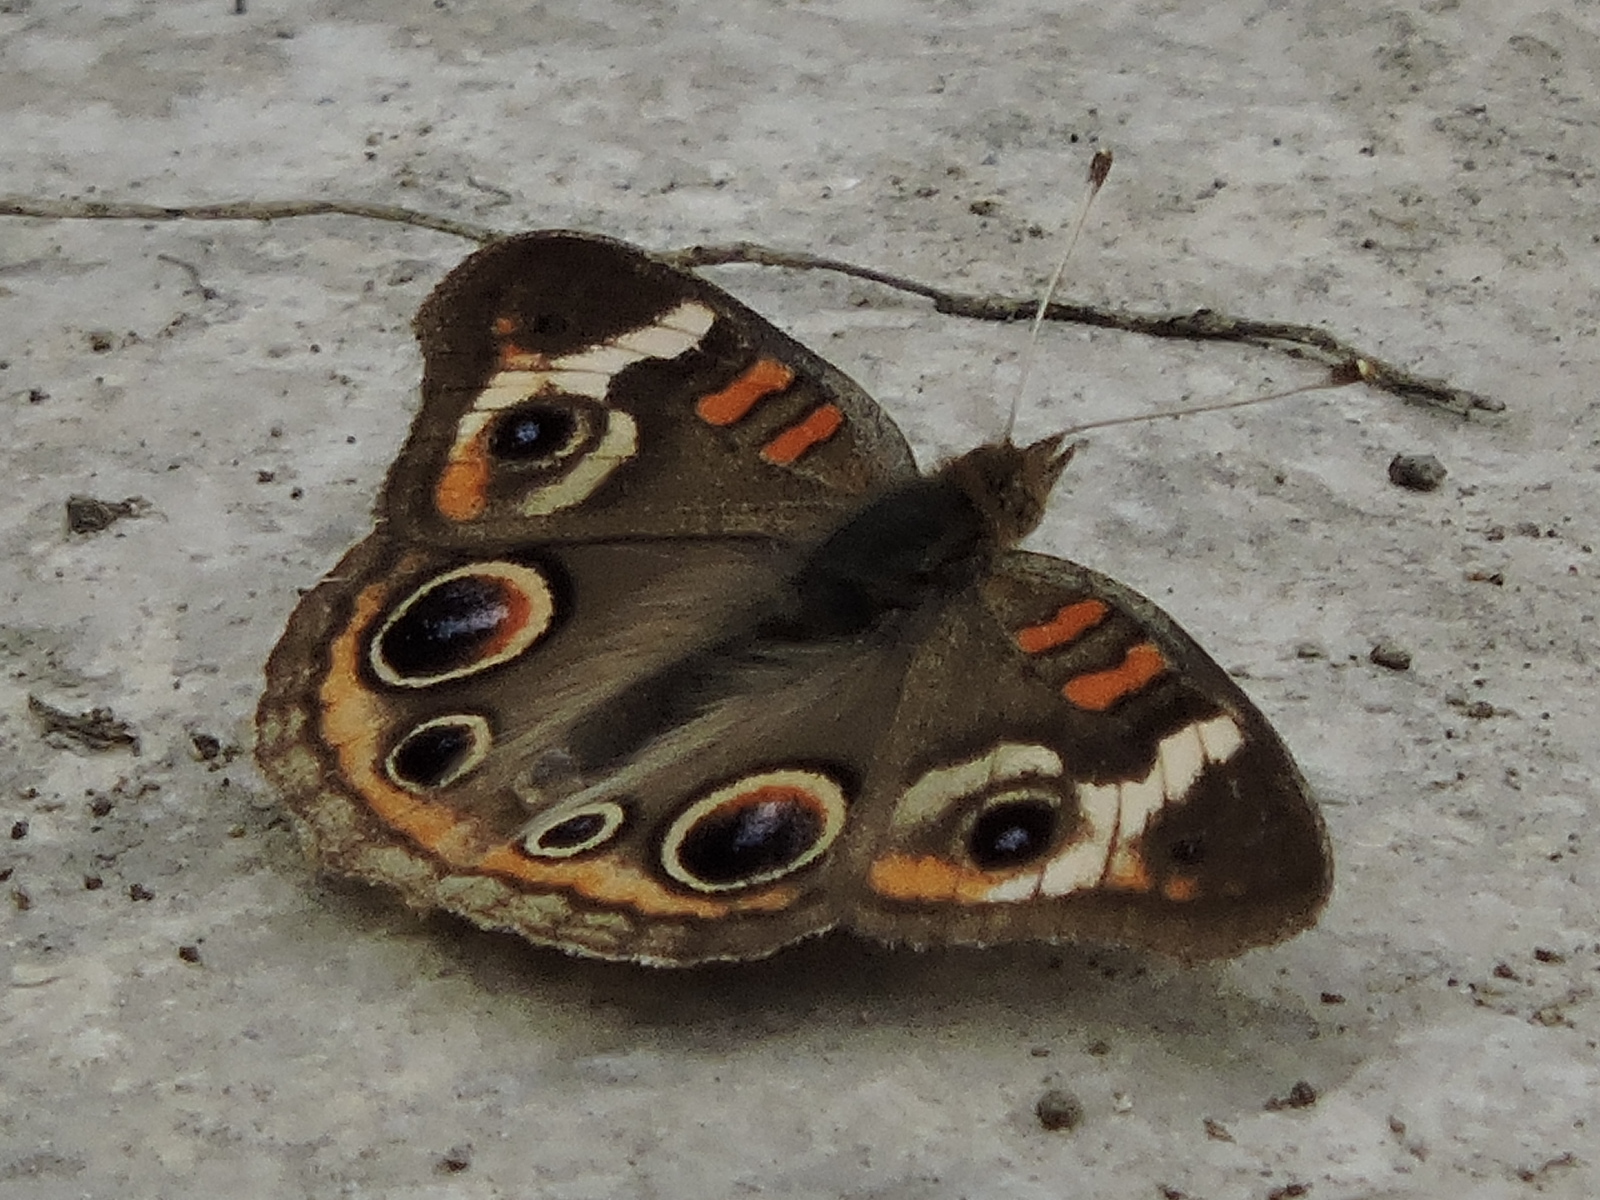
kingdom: Animalia
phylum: Arthropoda
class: Insecta
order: Lepidoptera
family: Nymphalidae
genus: Junonia
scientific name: Junonia coenia
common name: Common buckeye
